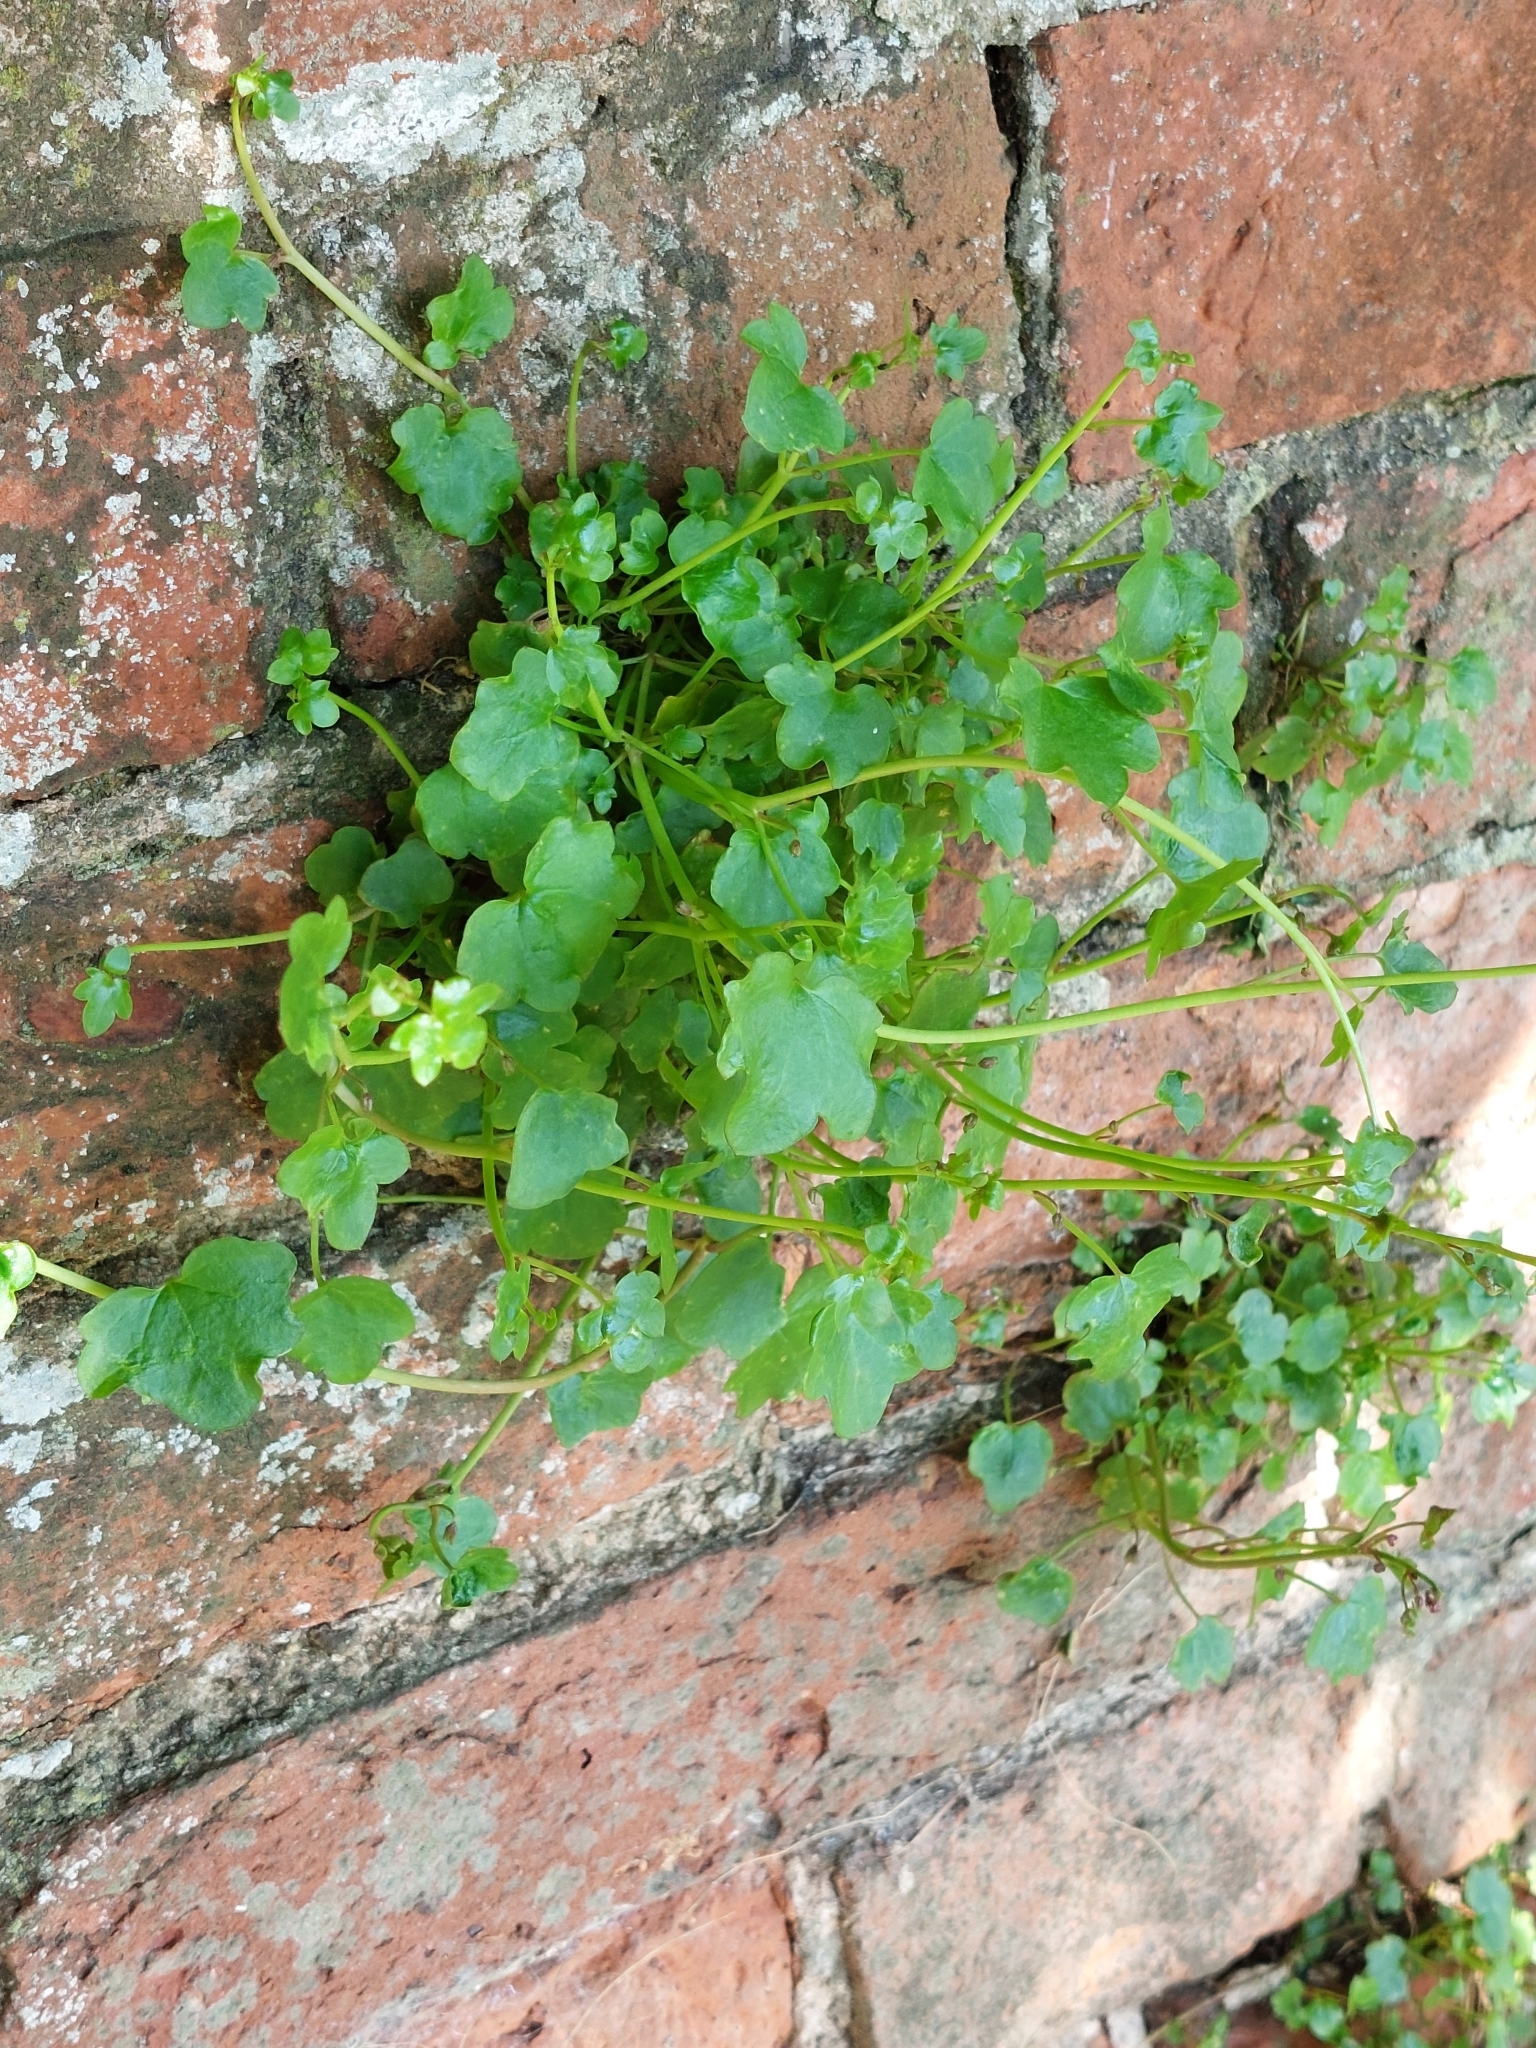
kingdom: Plantae
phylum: Tracheophyta
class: Magnoliopsida
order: Lamiales
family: Plantaginaceae
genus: Cymbalaria
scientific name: Cymbalaria muralis
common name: Ivy-leaved toadflax
